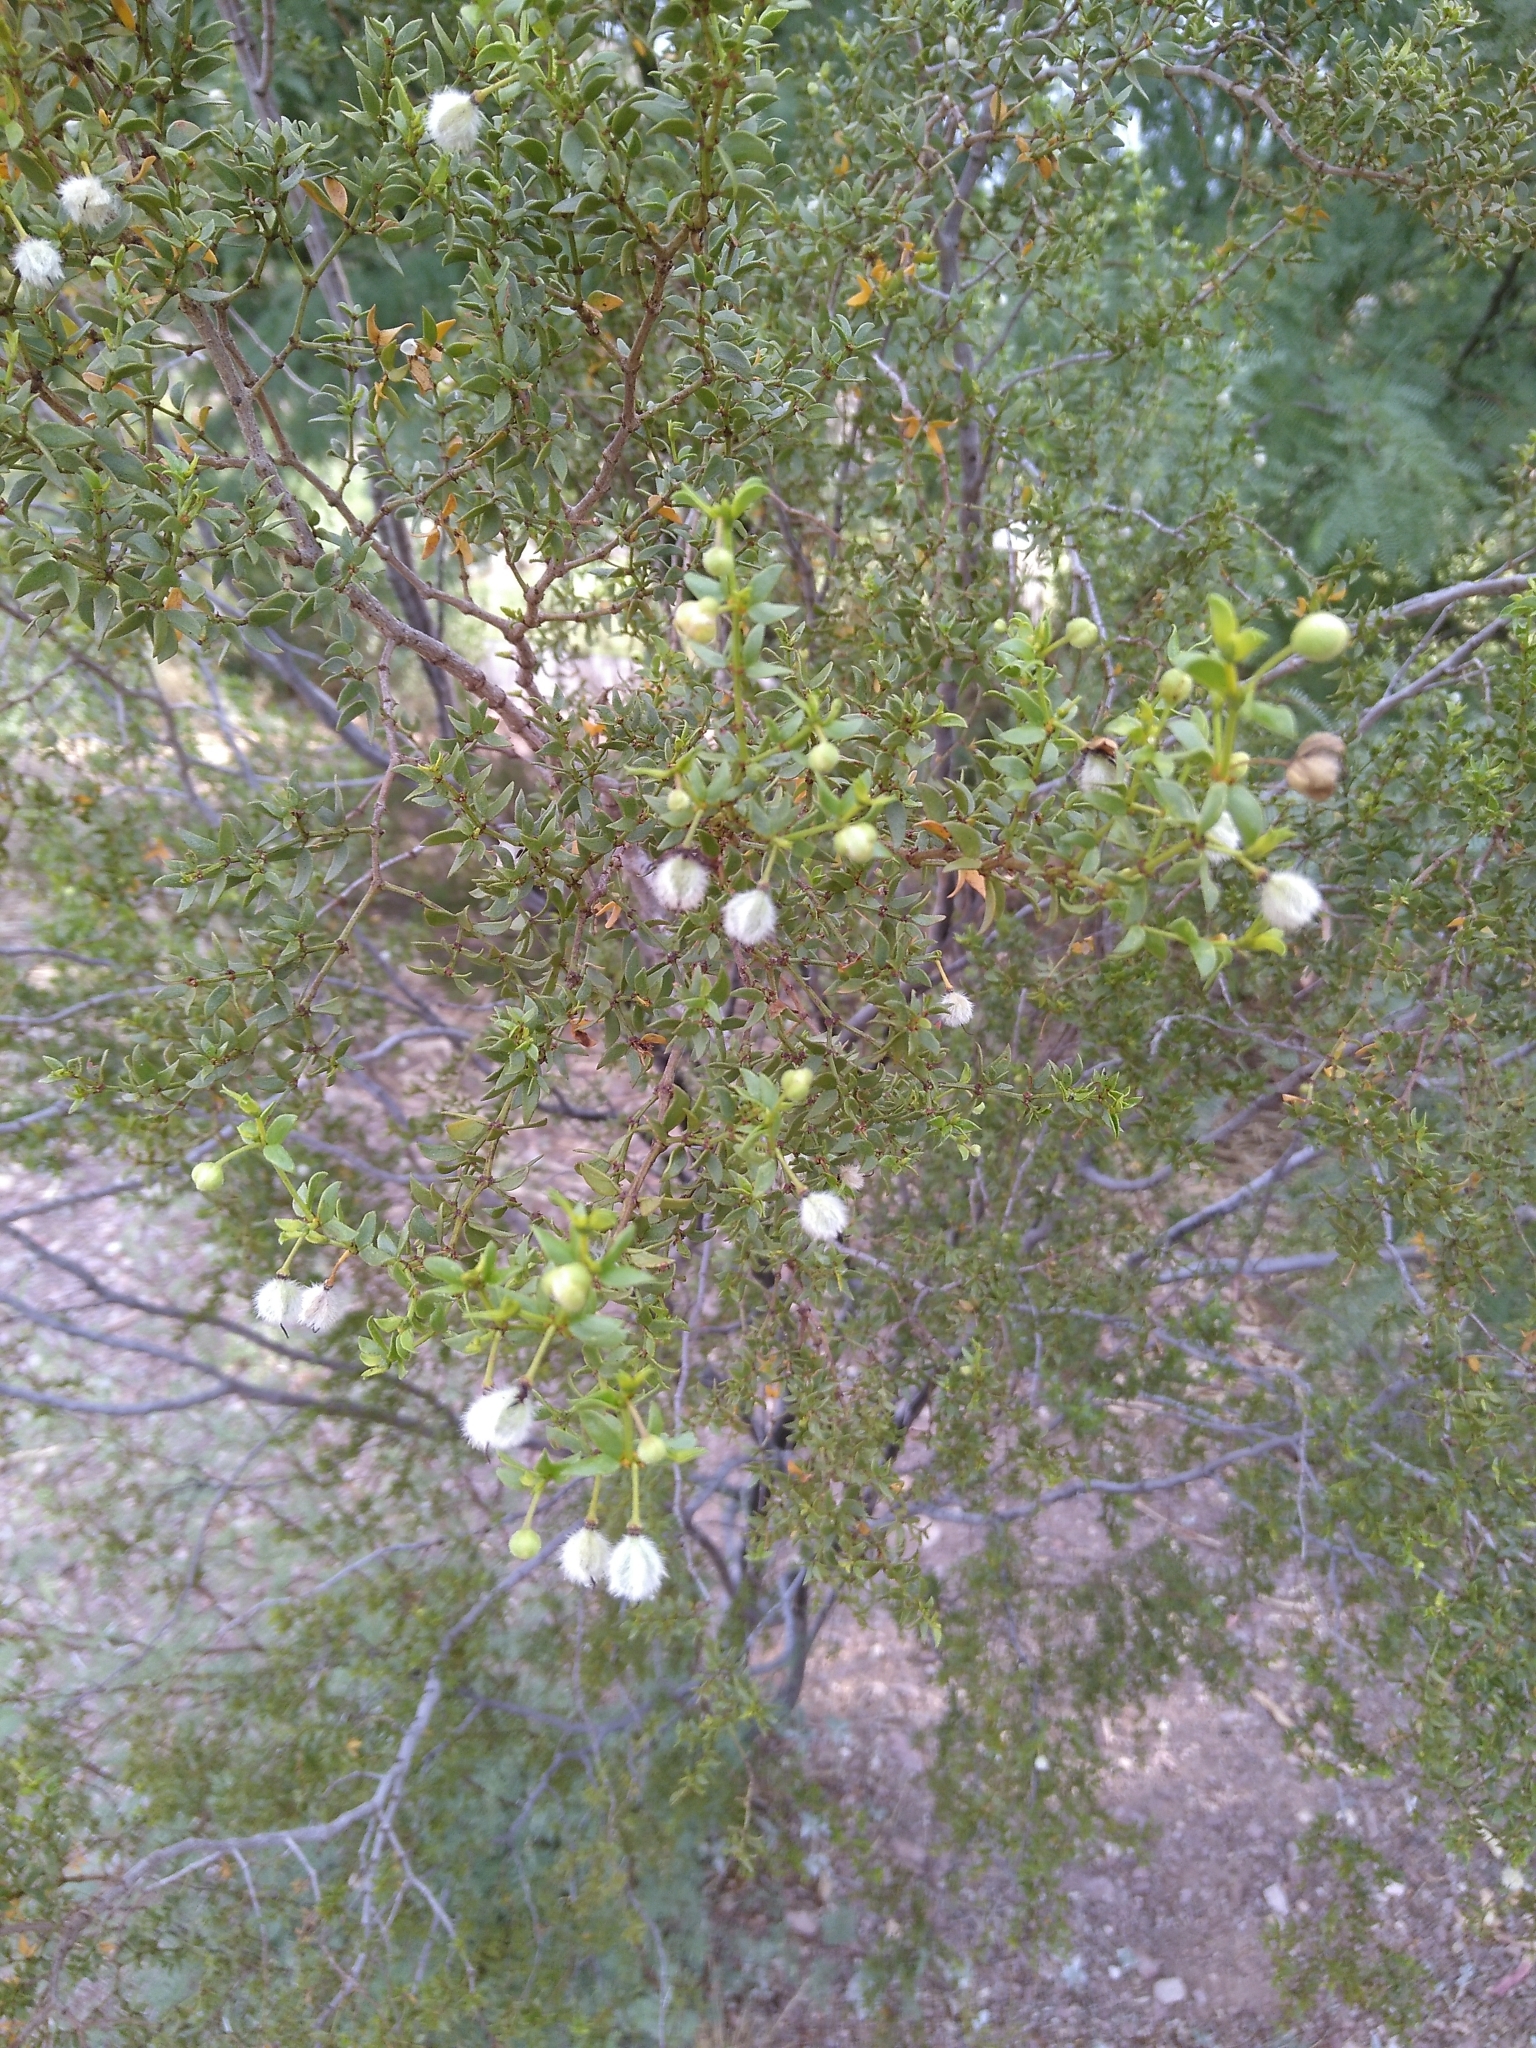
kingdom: Plantae
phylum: Tracheophyta
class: Magnoliopsida
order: Zygophyllales
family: Zygophyllaceae
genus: Larrea
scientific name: Larrea tridentata
